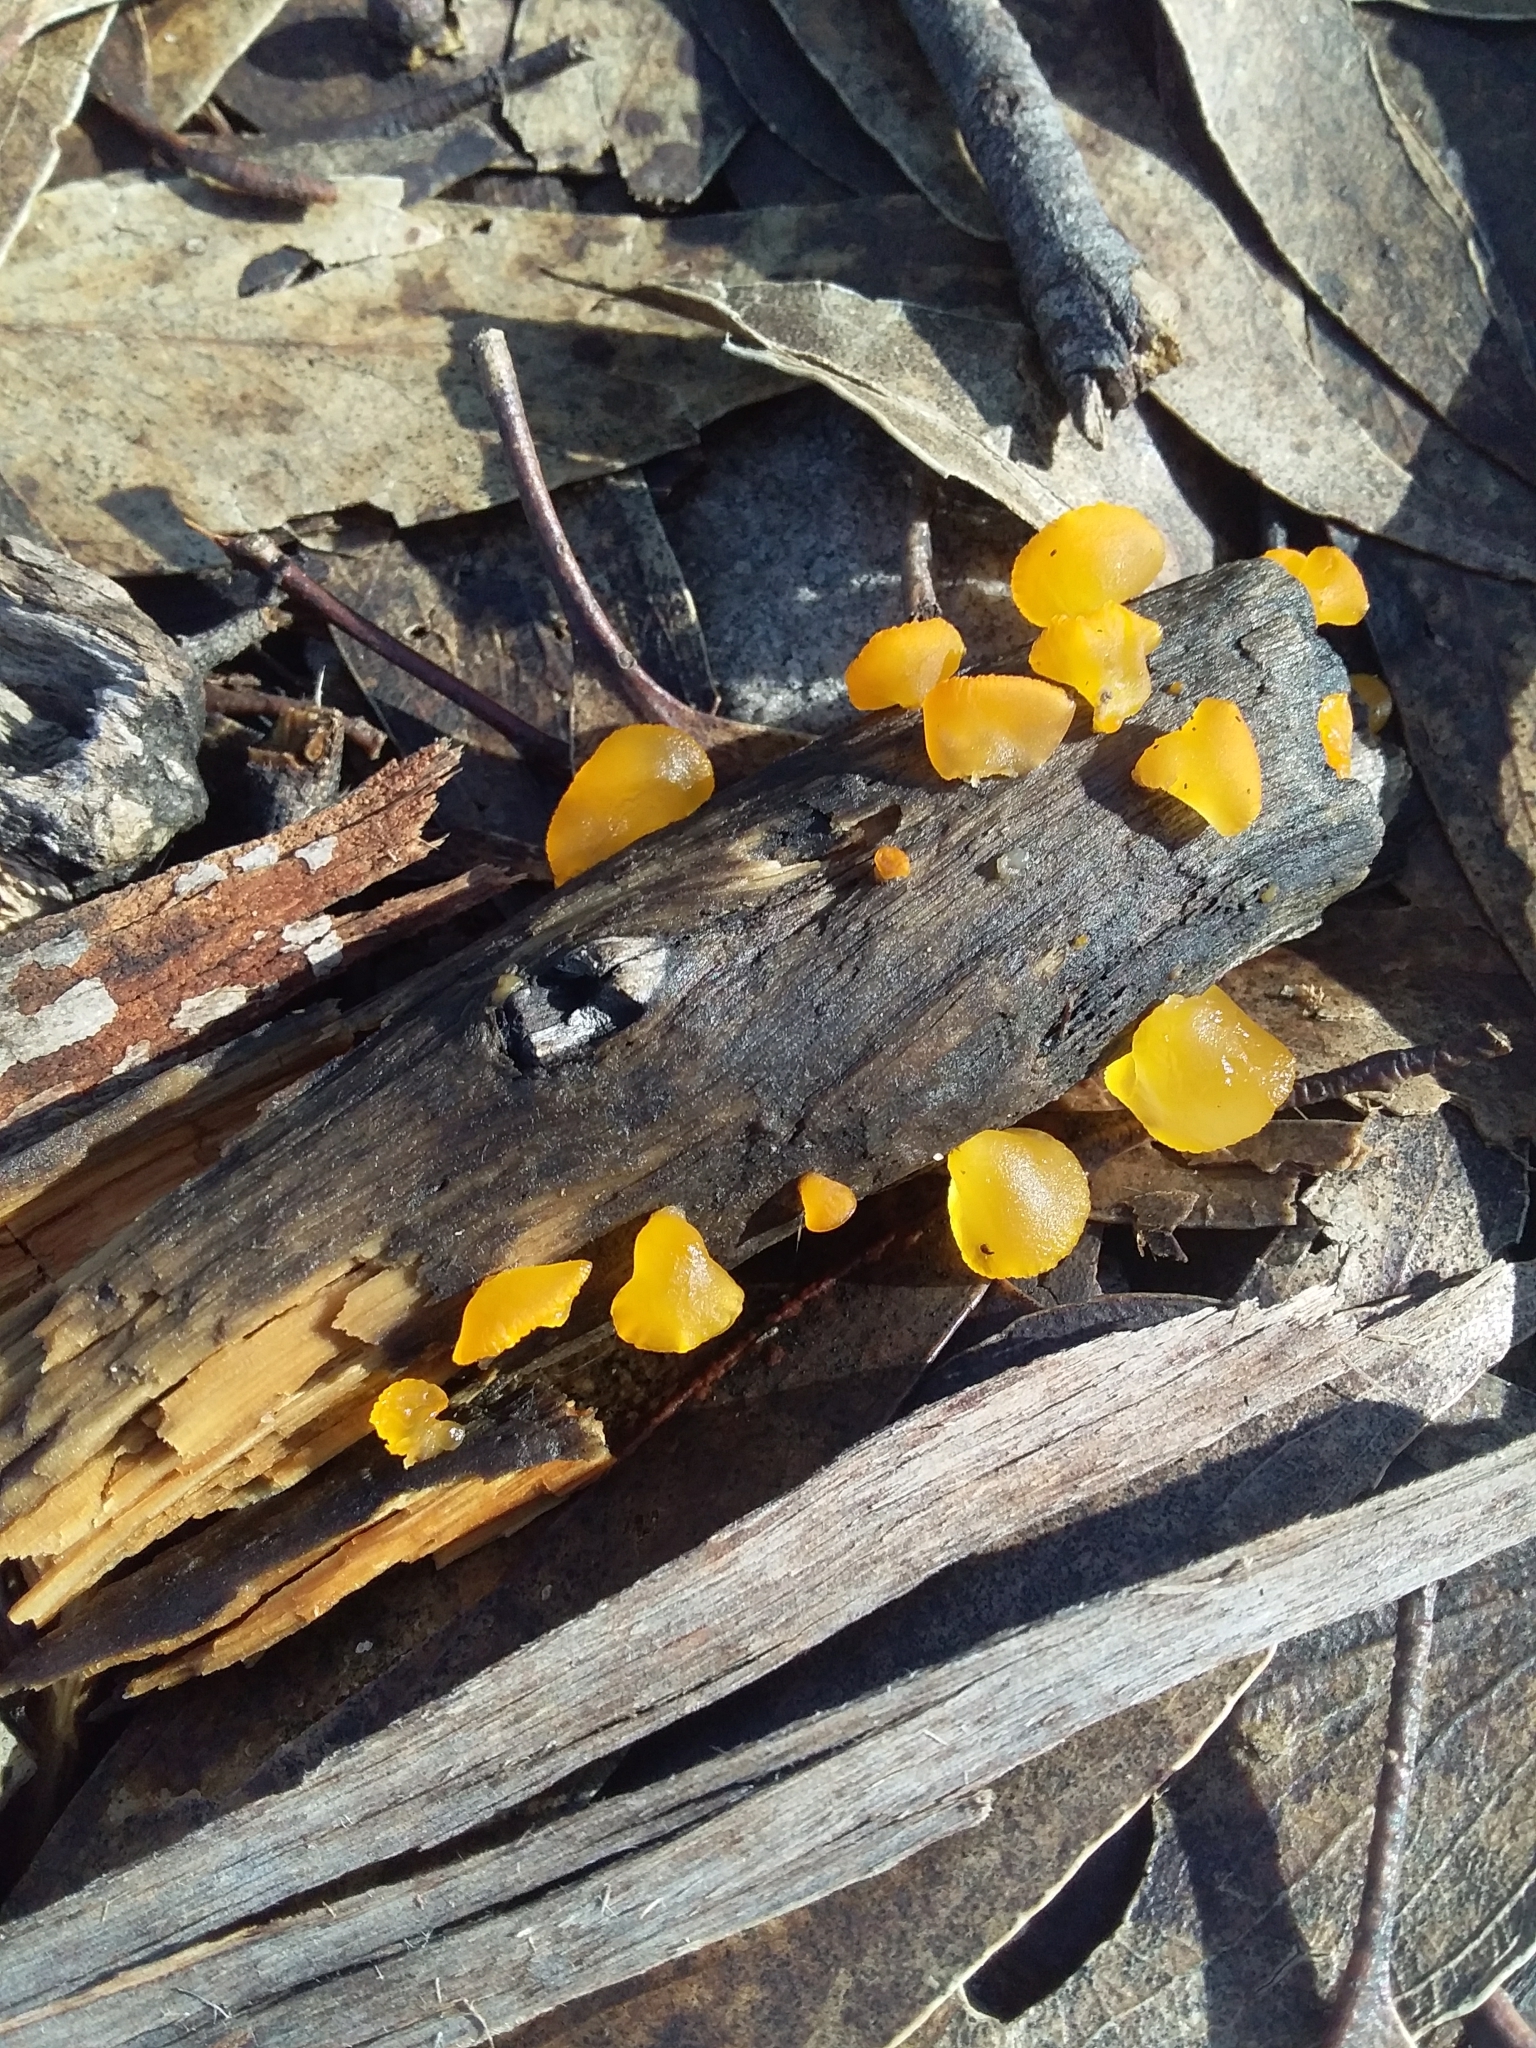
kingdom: Fungi
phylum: Basidiomycota
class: Dacrymycetes
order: Dacrymycetales
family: Dacrymycetaceae
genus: Heterotextus
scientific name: Heterotextus peziziformis
